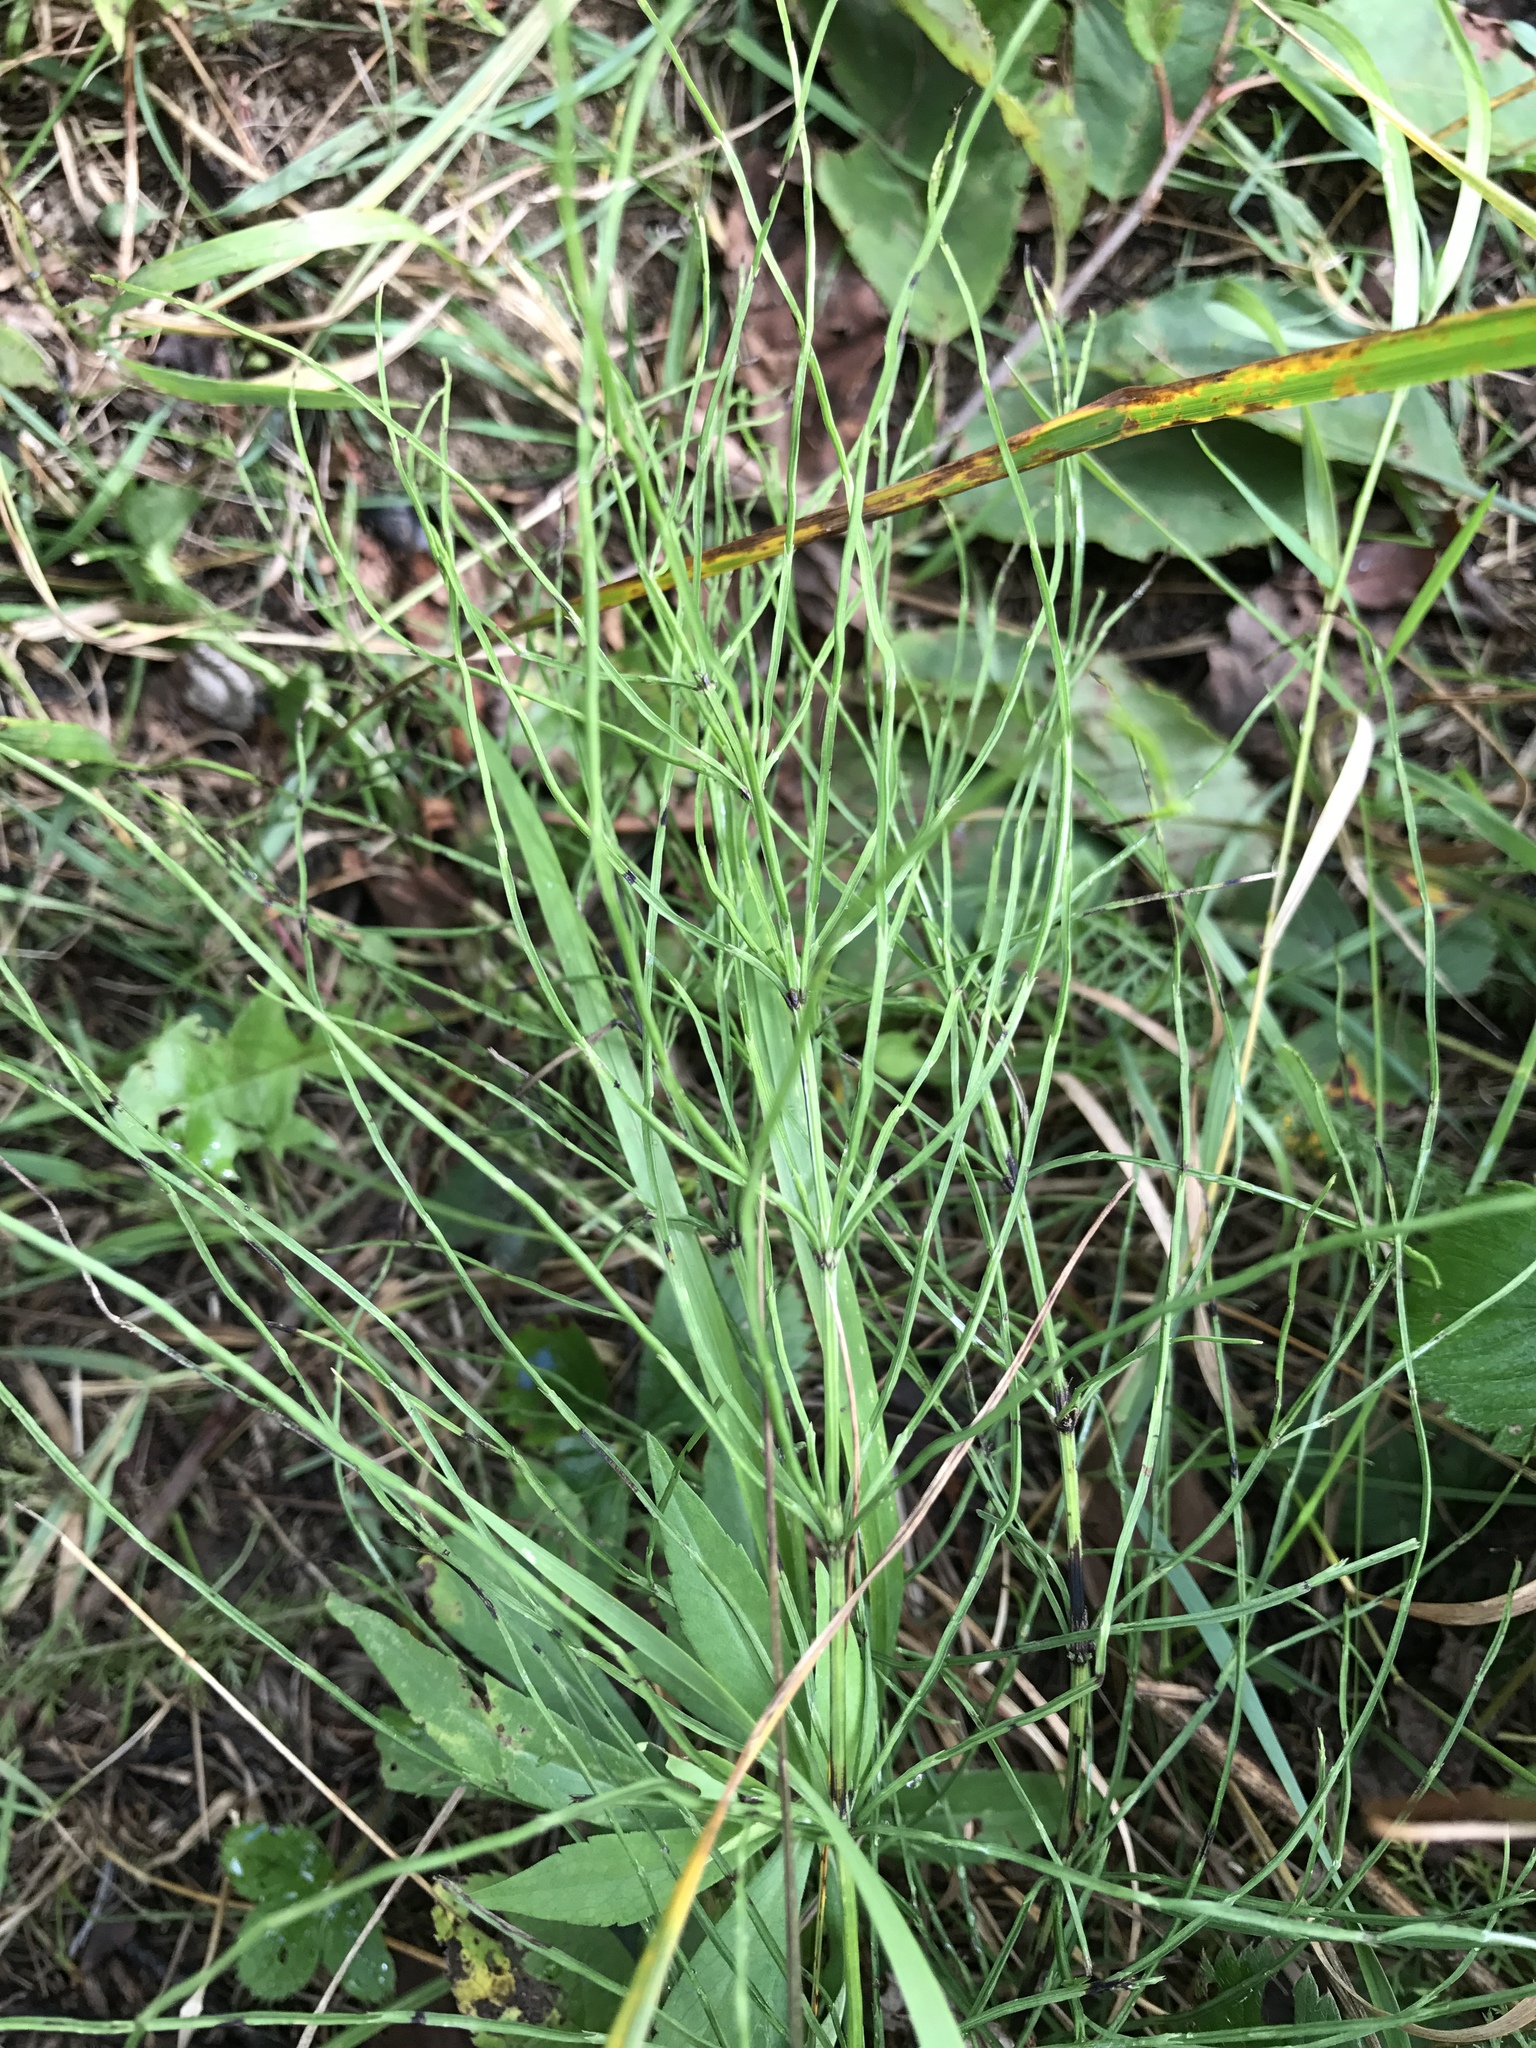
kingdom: Plantae
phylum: Tracheophyta
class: Polypodiopsida
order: Equisetales
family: Equisetaceae
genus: Equisetum
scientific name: Equisetum arvense
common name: Field horsetail
